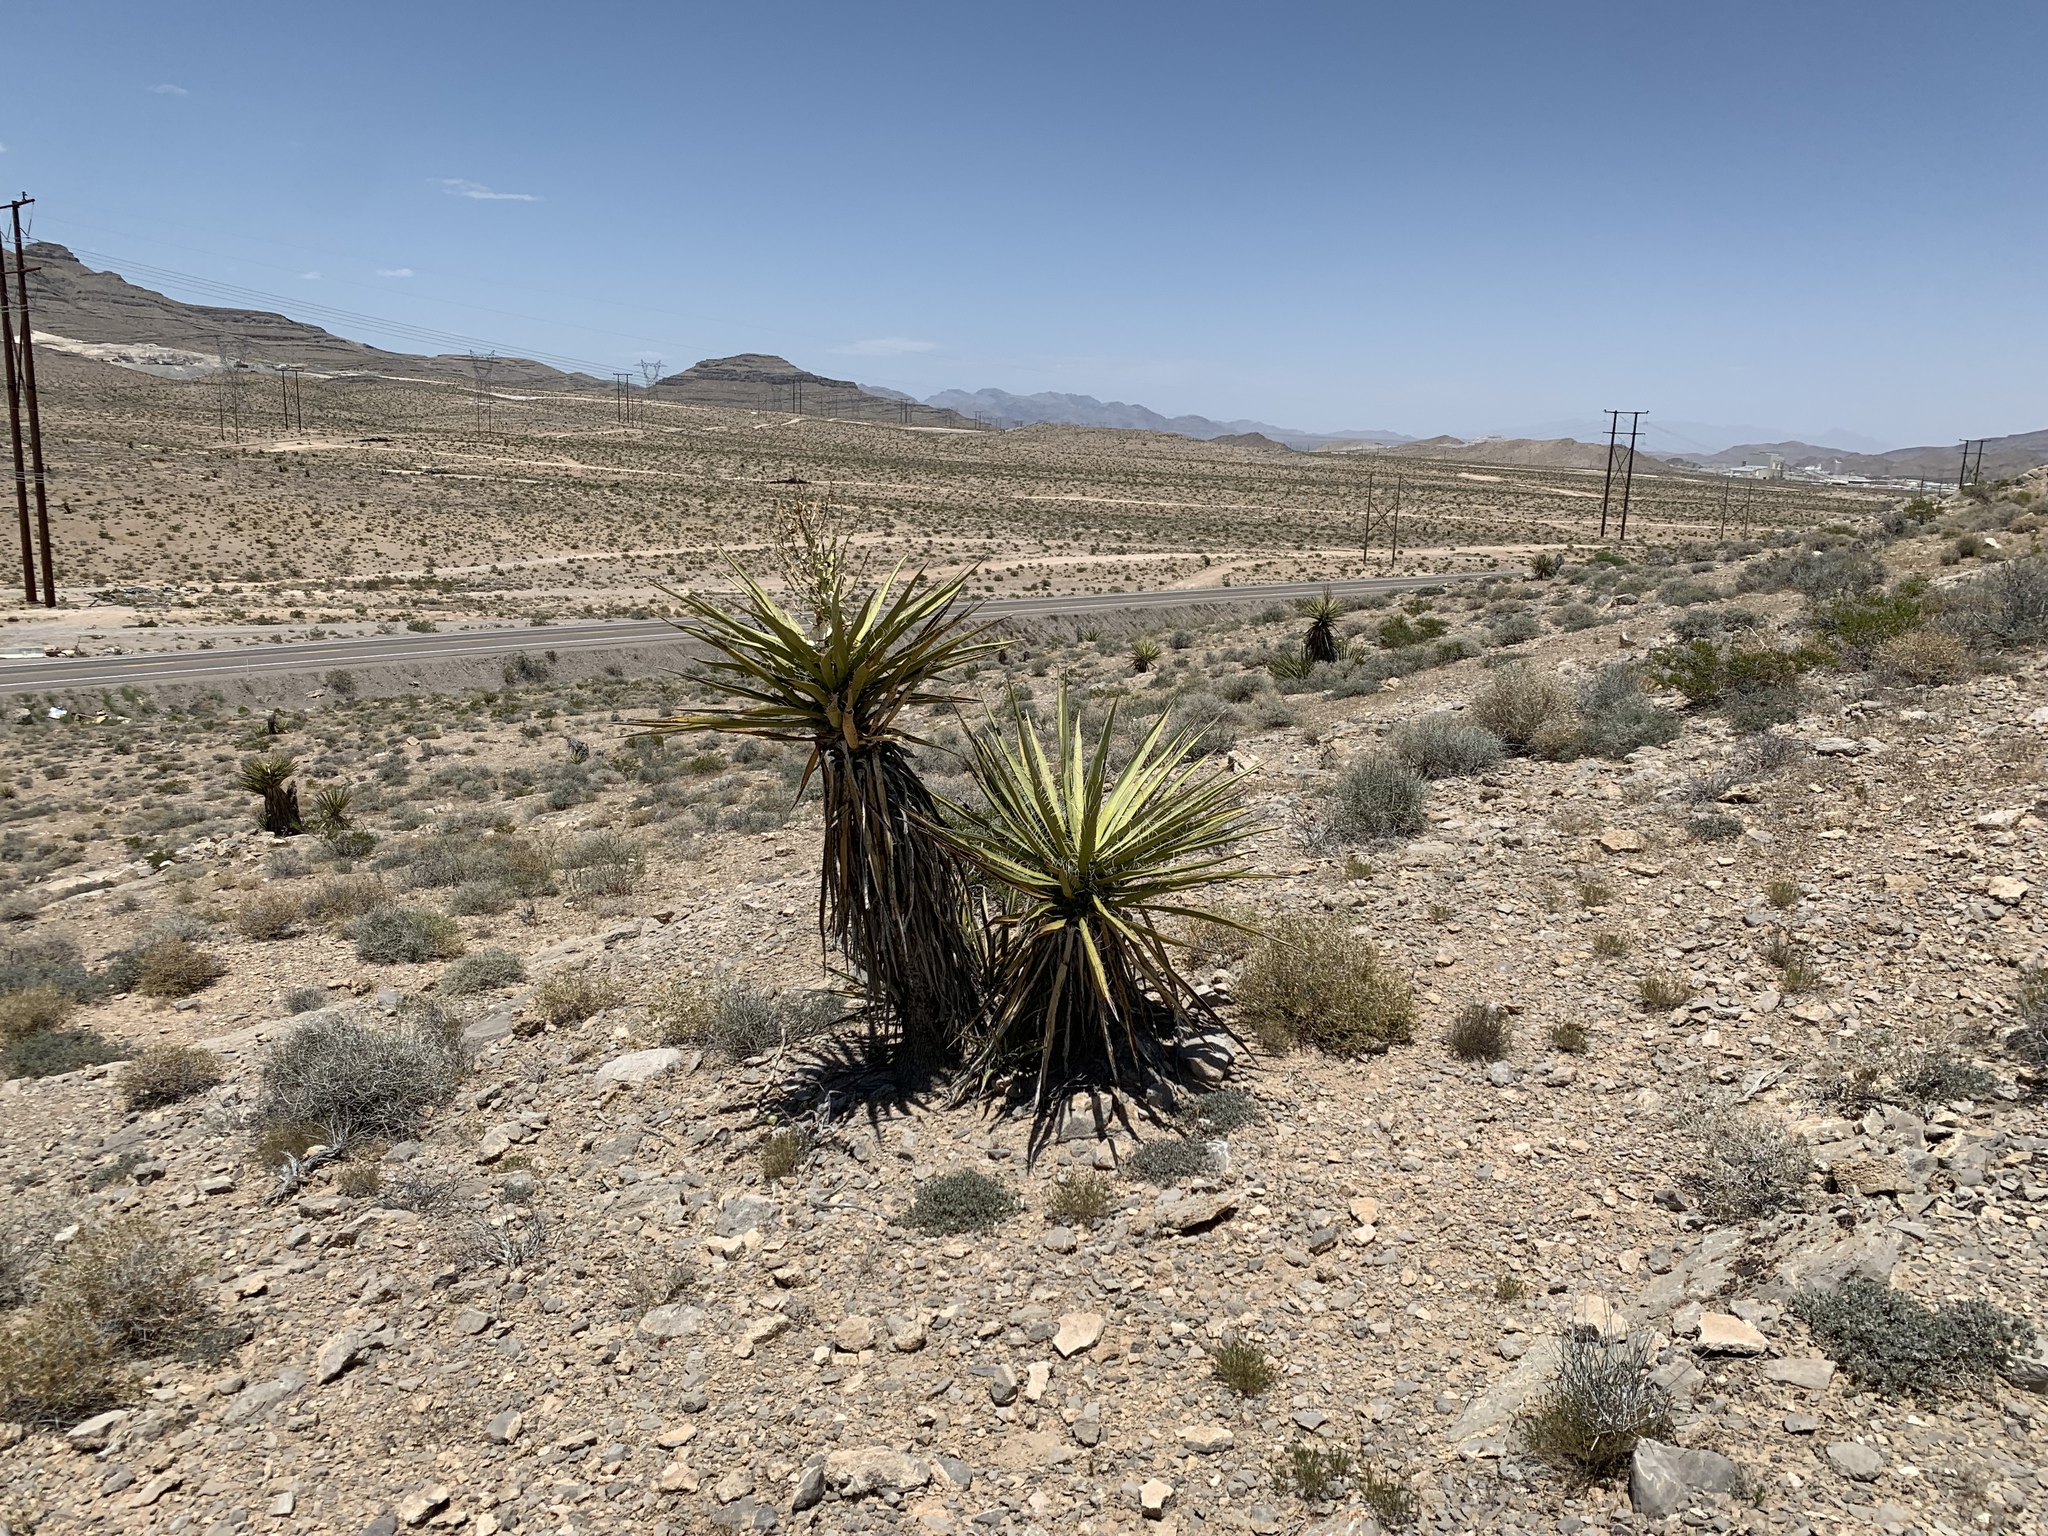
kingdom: Plantae
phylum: Tracheophyta
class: Liliopsida
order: Asparagales
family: Asparagaceae
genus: Yucca
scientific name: Yucca schidigera
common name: Mojave yucca
